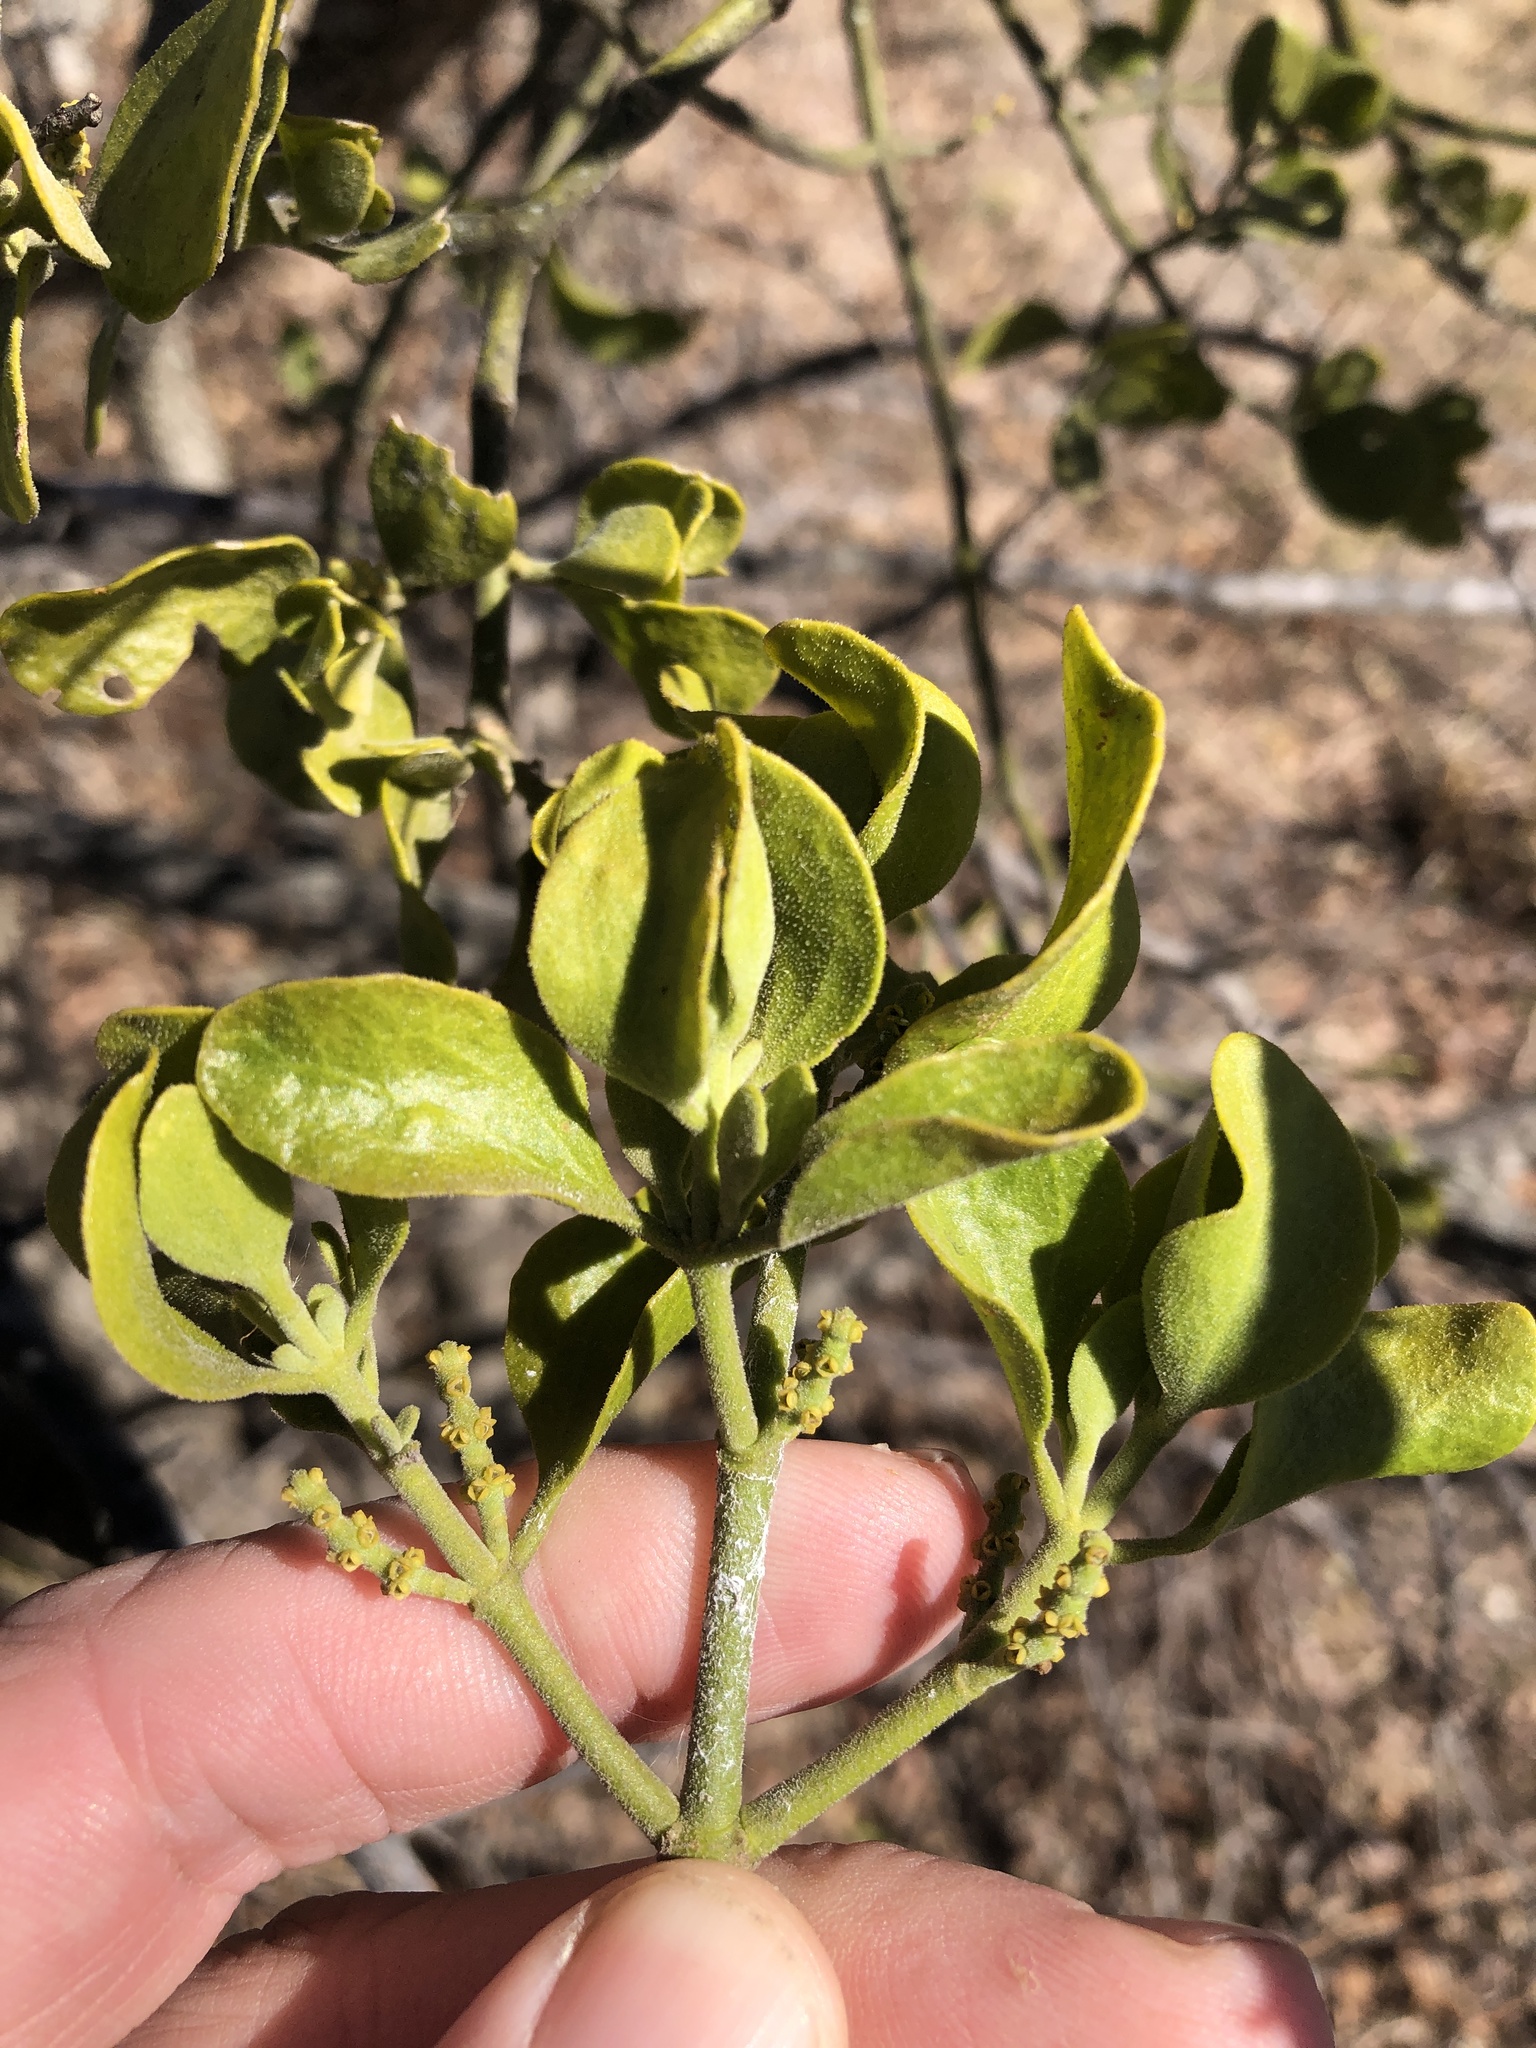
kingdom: Plantae
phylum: Tracheophyta
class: Magnoliopsida
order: Santalales
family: Viscaceae
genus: Phoradendron
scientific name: Phoradendron leucarpum
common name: Pacific mistletoe
